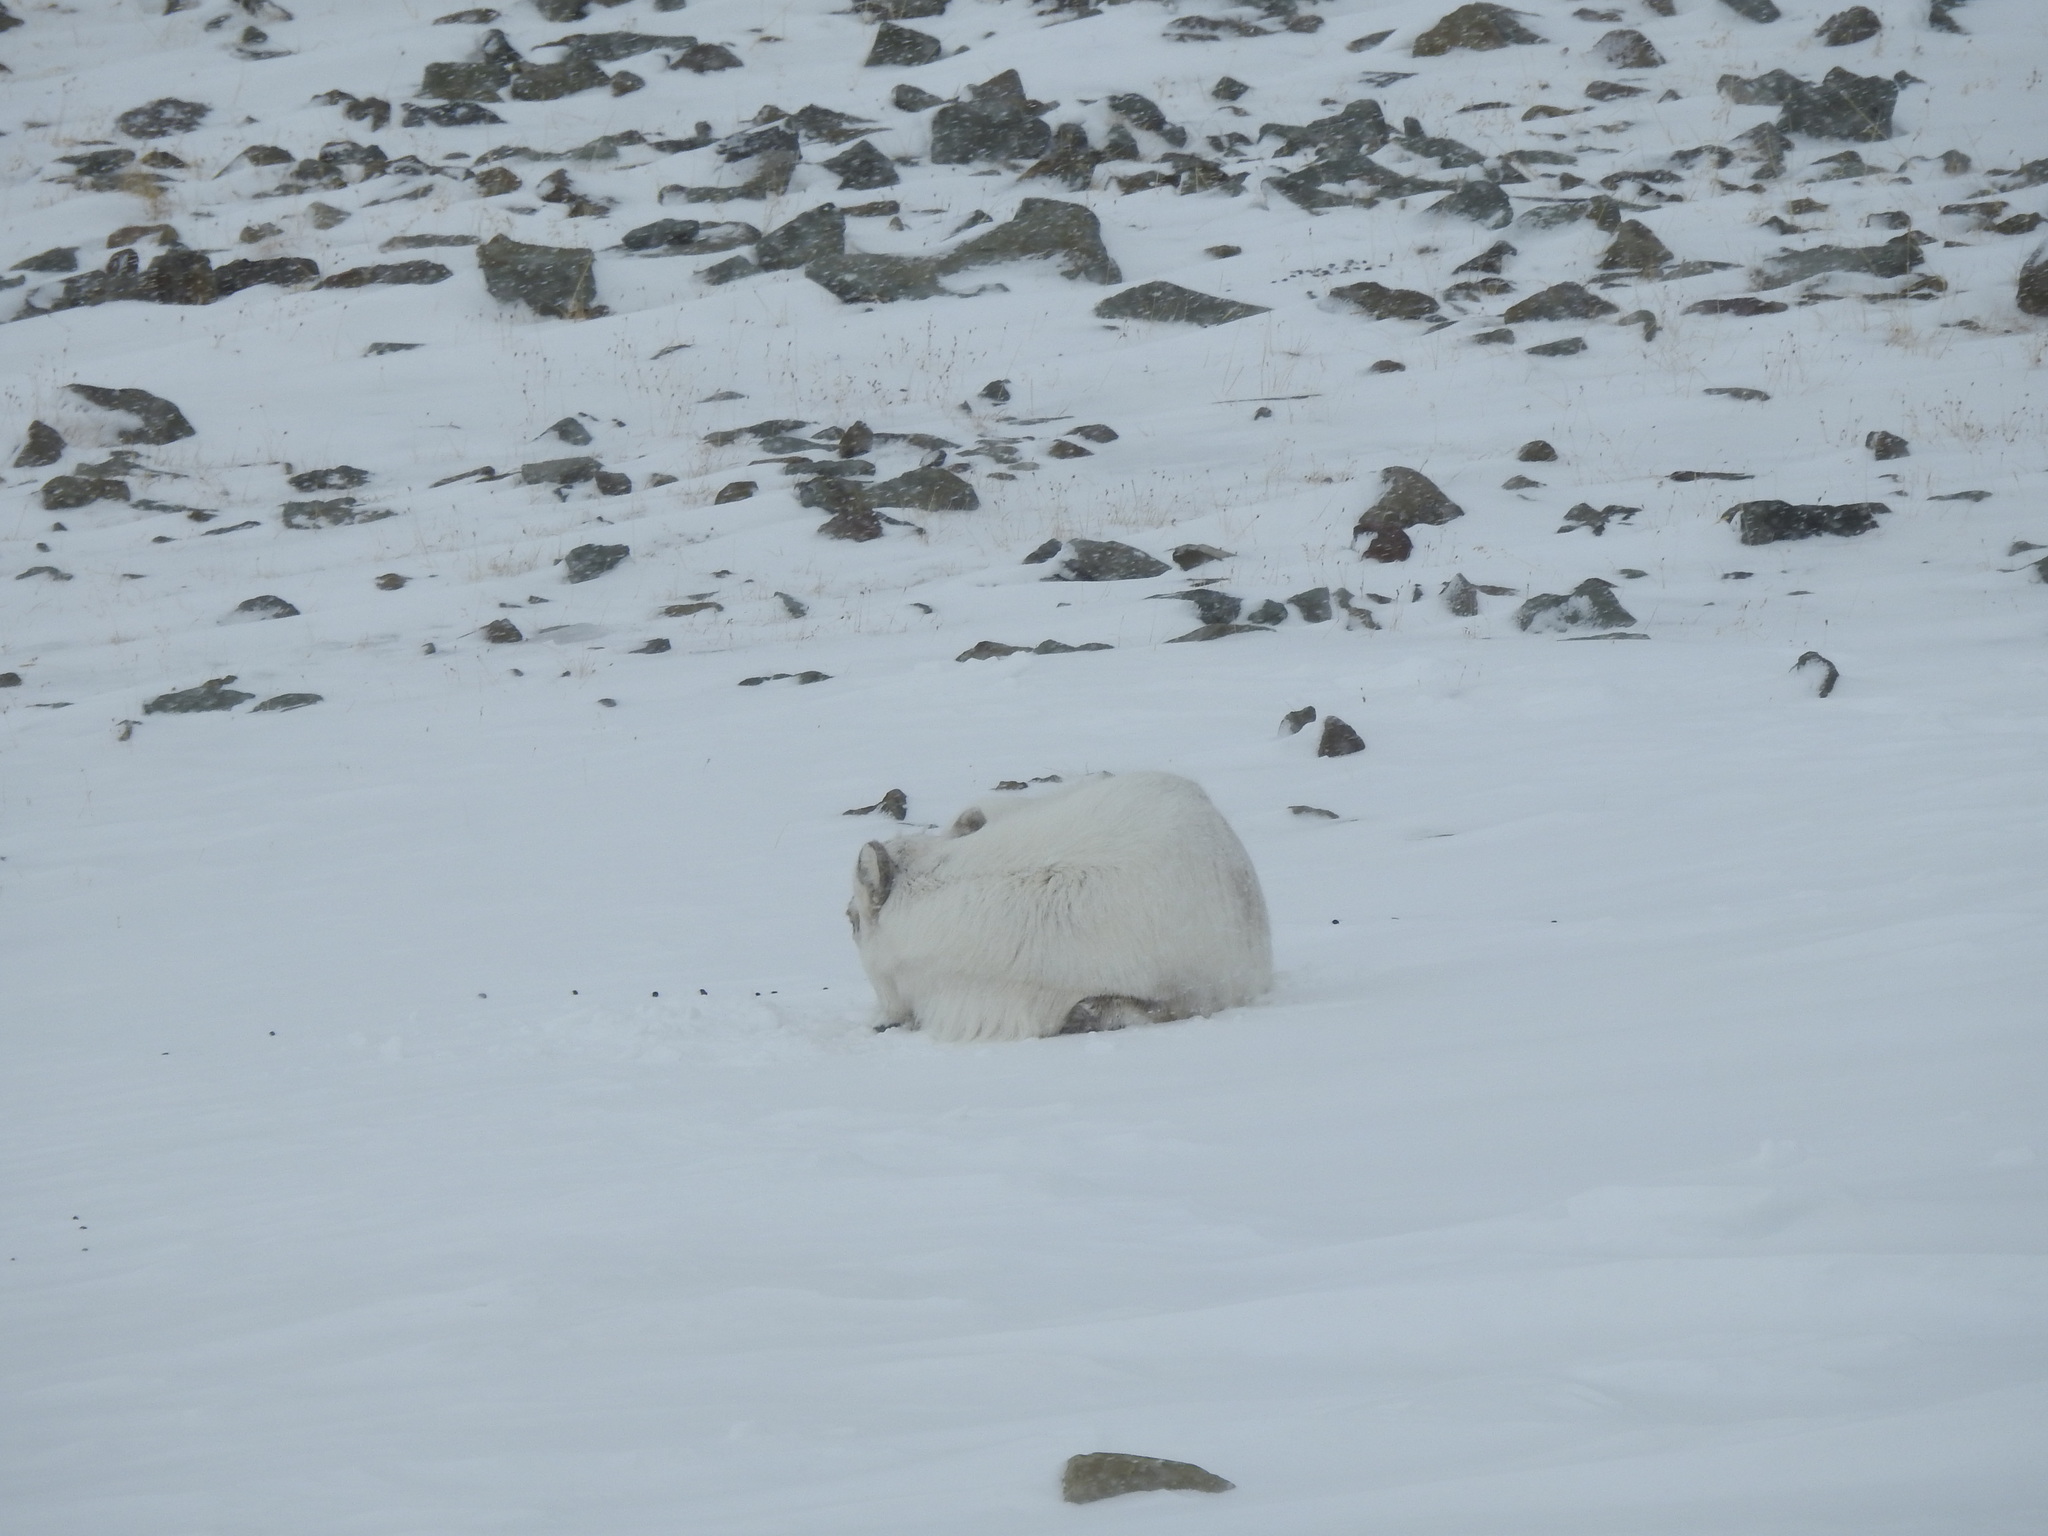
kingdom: Animalia
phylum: Chordata
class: Mammalia
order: Artiodactyla
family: Cervidae
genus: Rangifer
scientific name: Rangifer tarandus
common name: Reindeer
